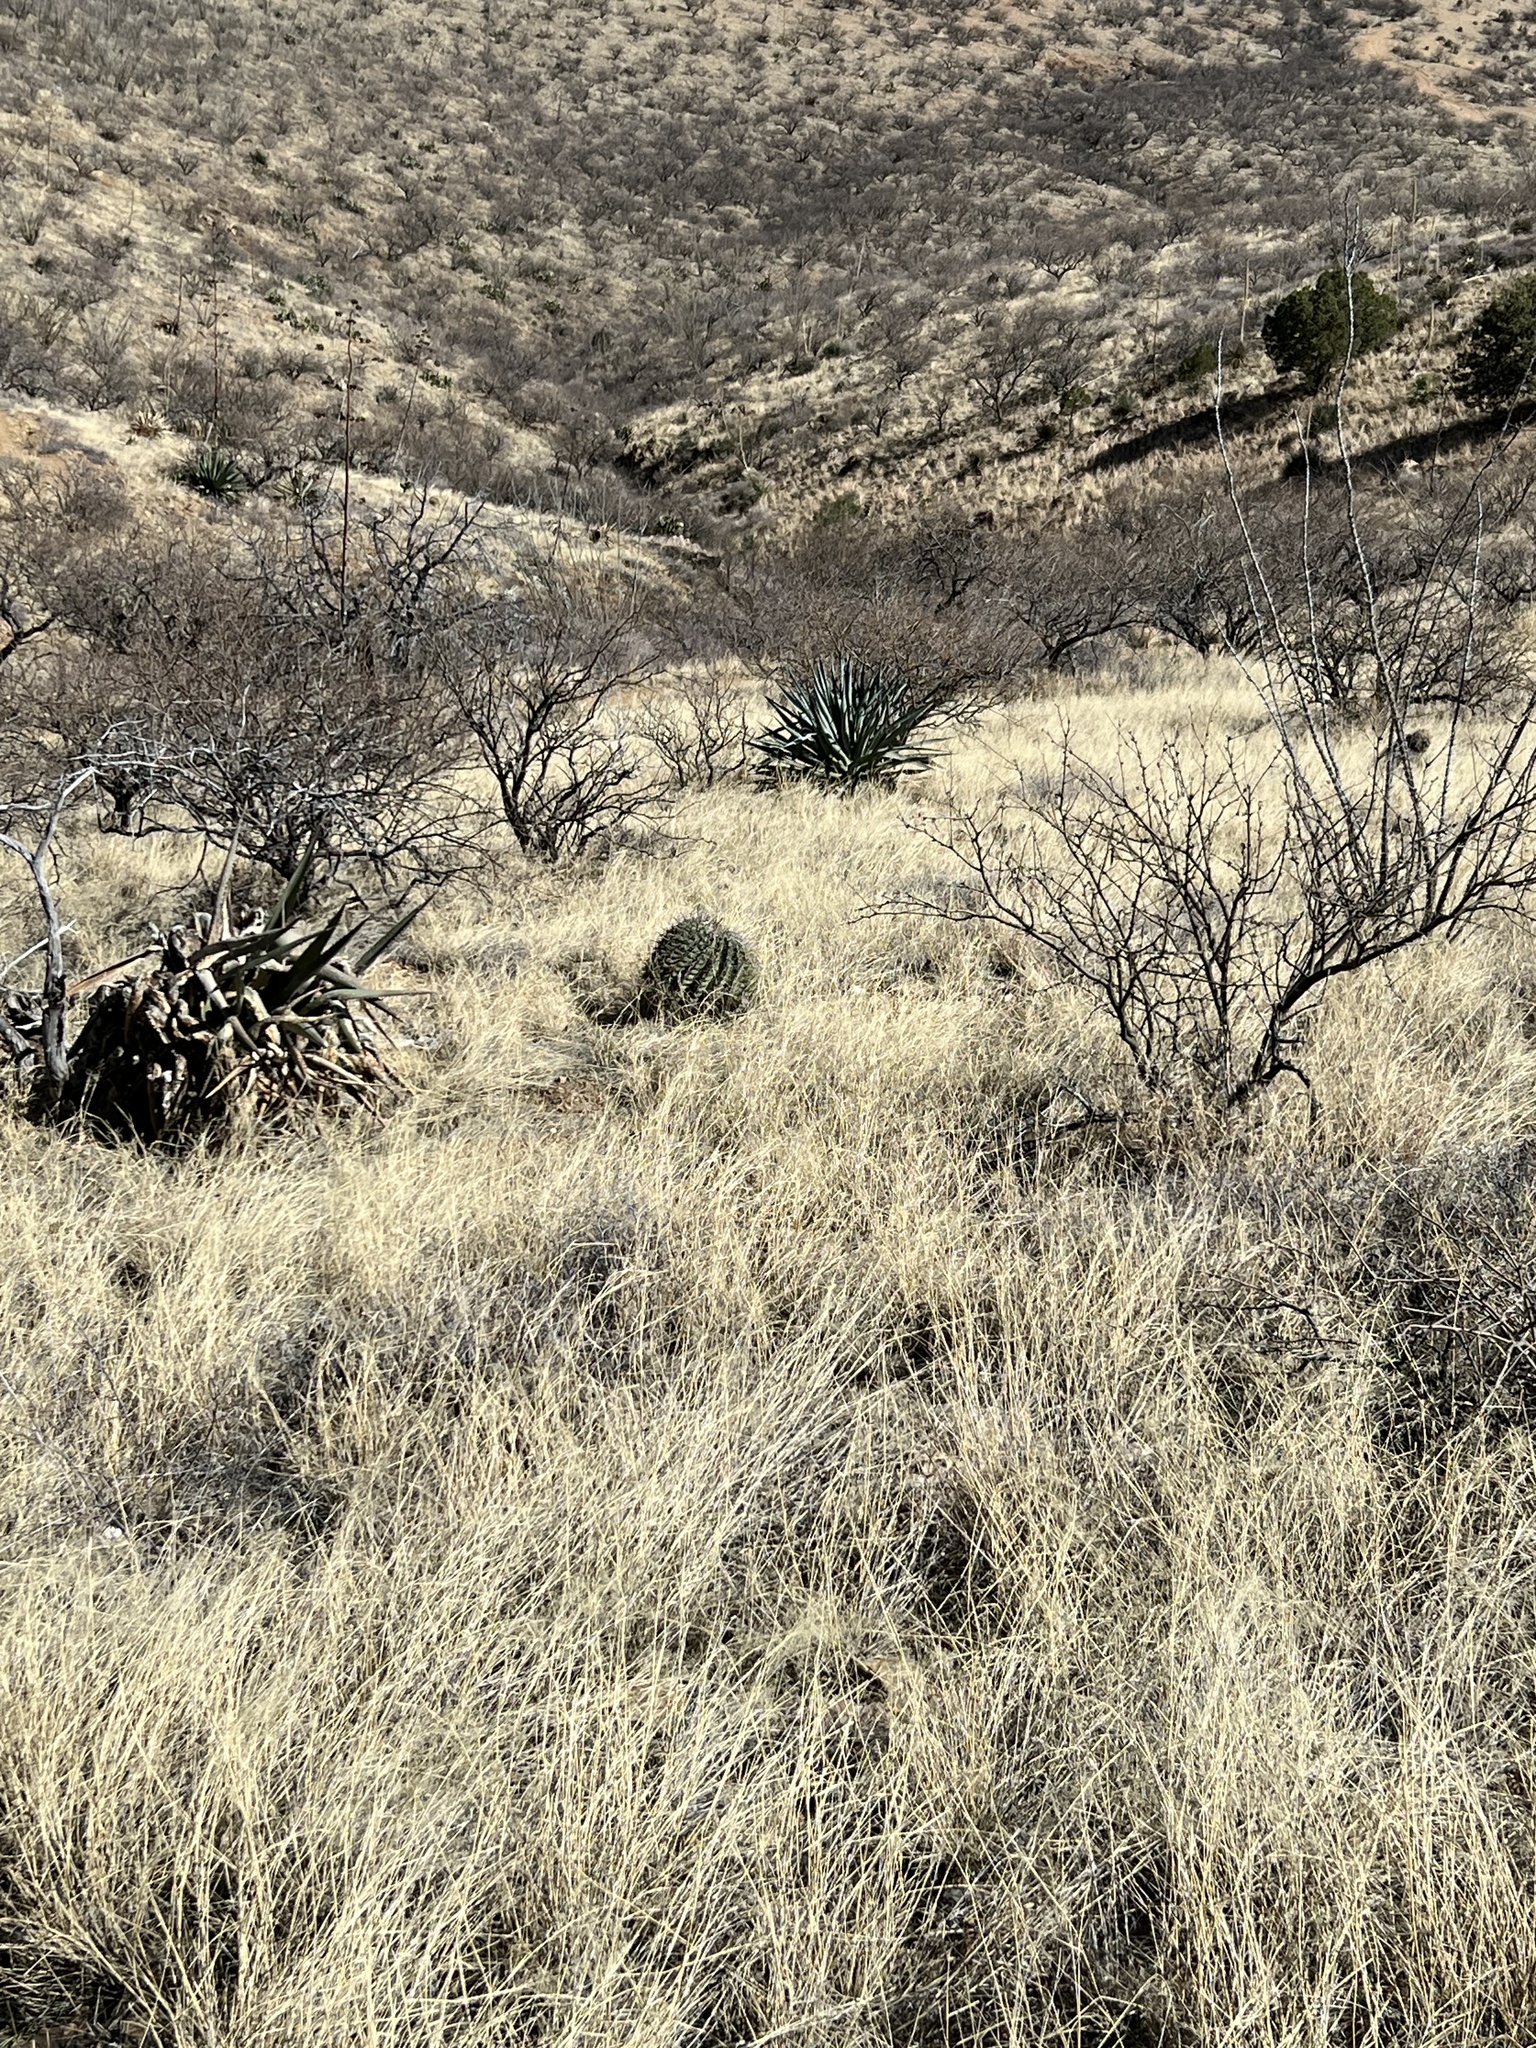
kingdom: Plantae
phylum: Tracheophyta
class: Magnoliopsida
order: Caryophyllales
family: Cactaceae
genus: Ferocactus
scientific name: Ferocactus wislizeni
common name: Candy barrel cactus
